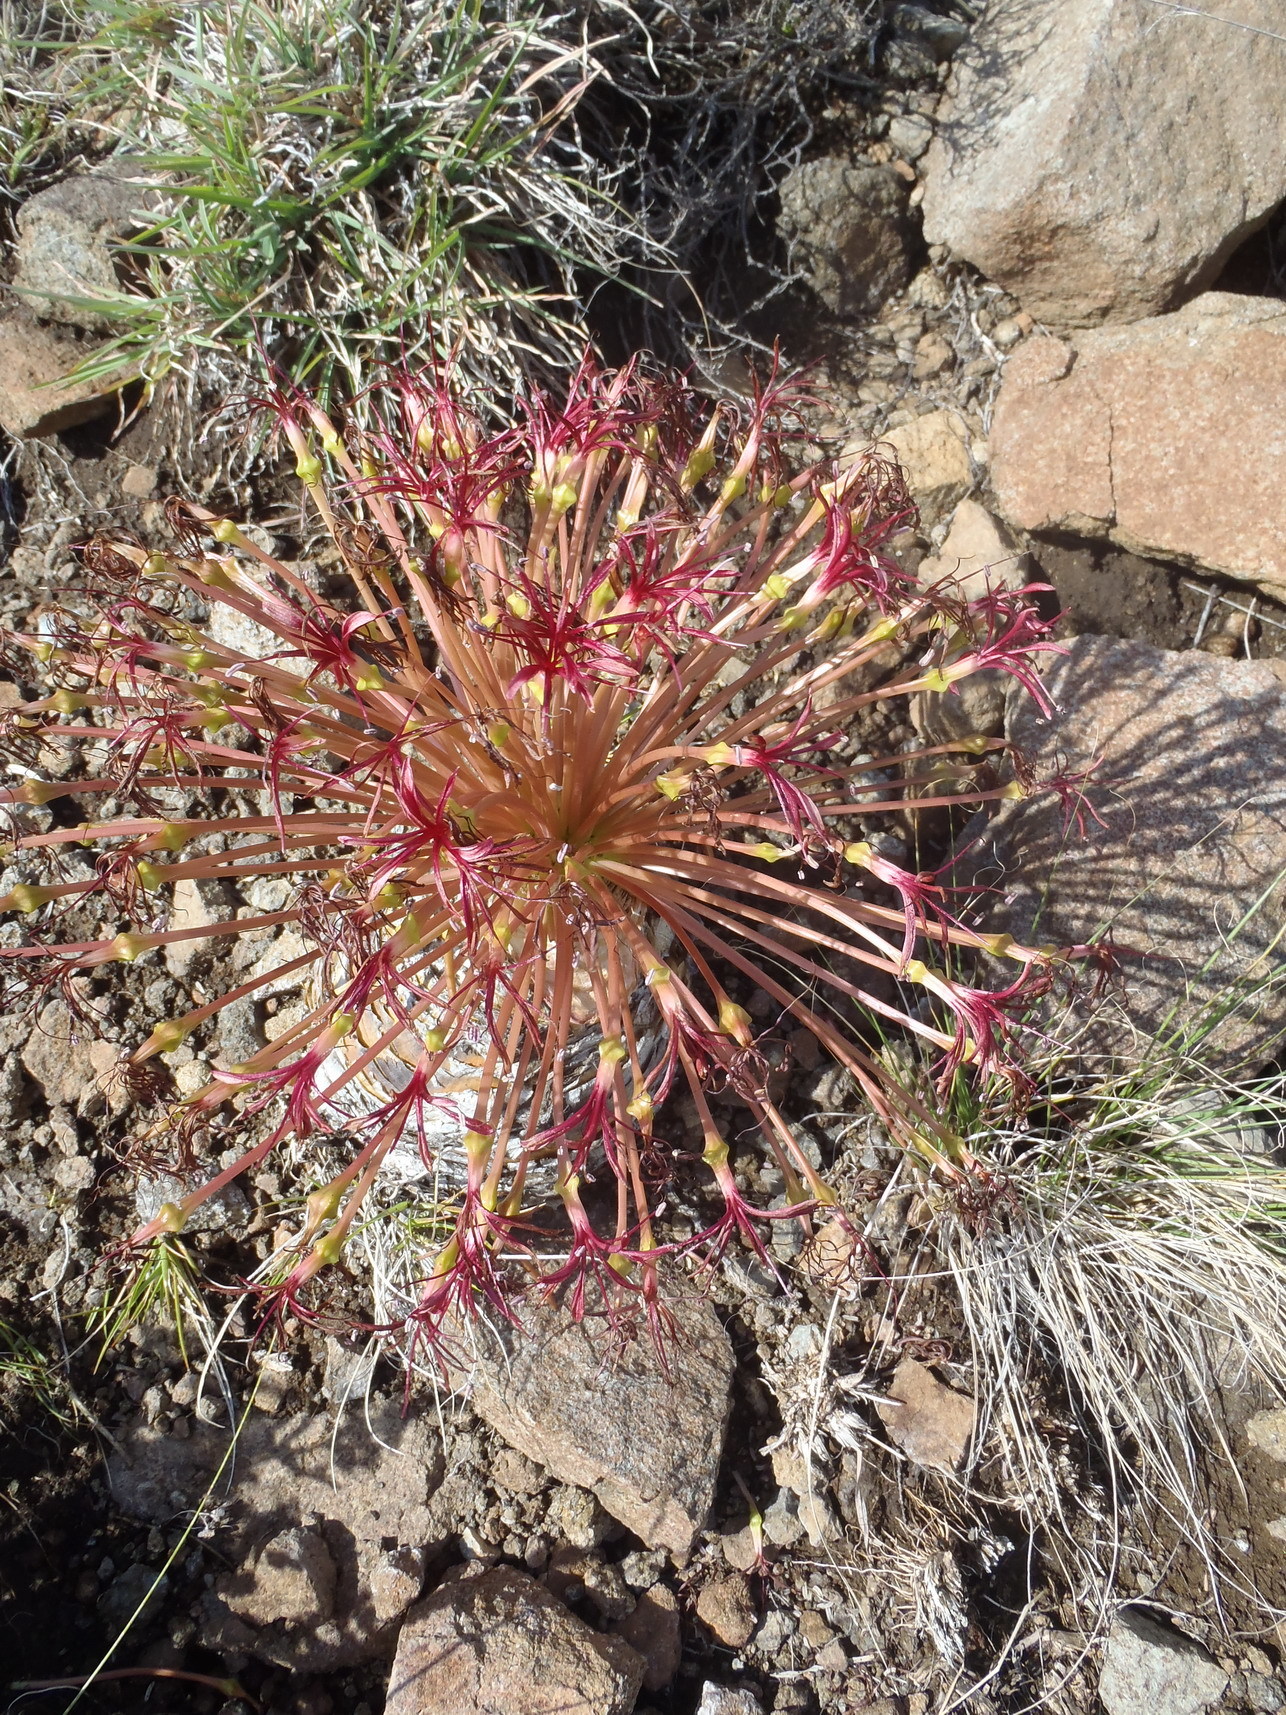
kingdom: Plantae
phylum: Tracheophyta
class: Liliopsida
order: Asparagales
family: Amaryllidaceae
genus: Boophone
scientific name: Boophone disticha
